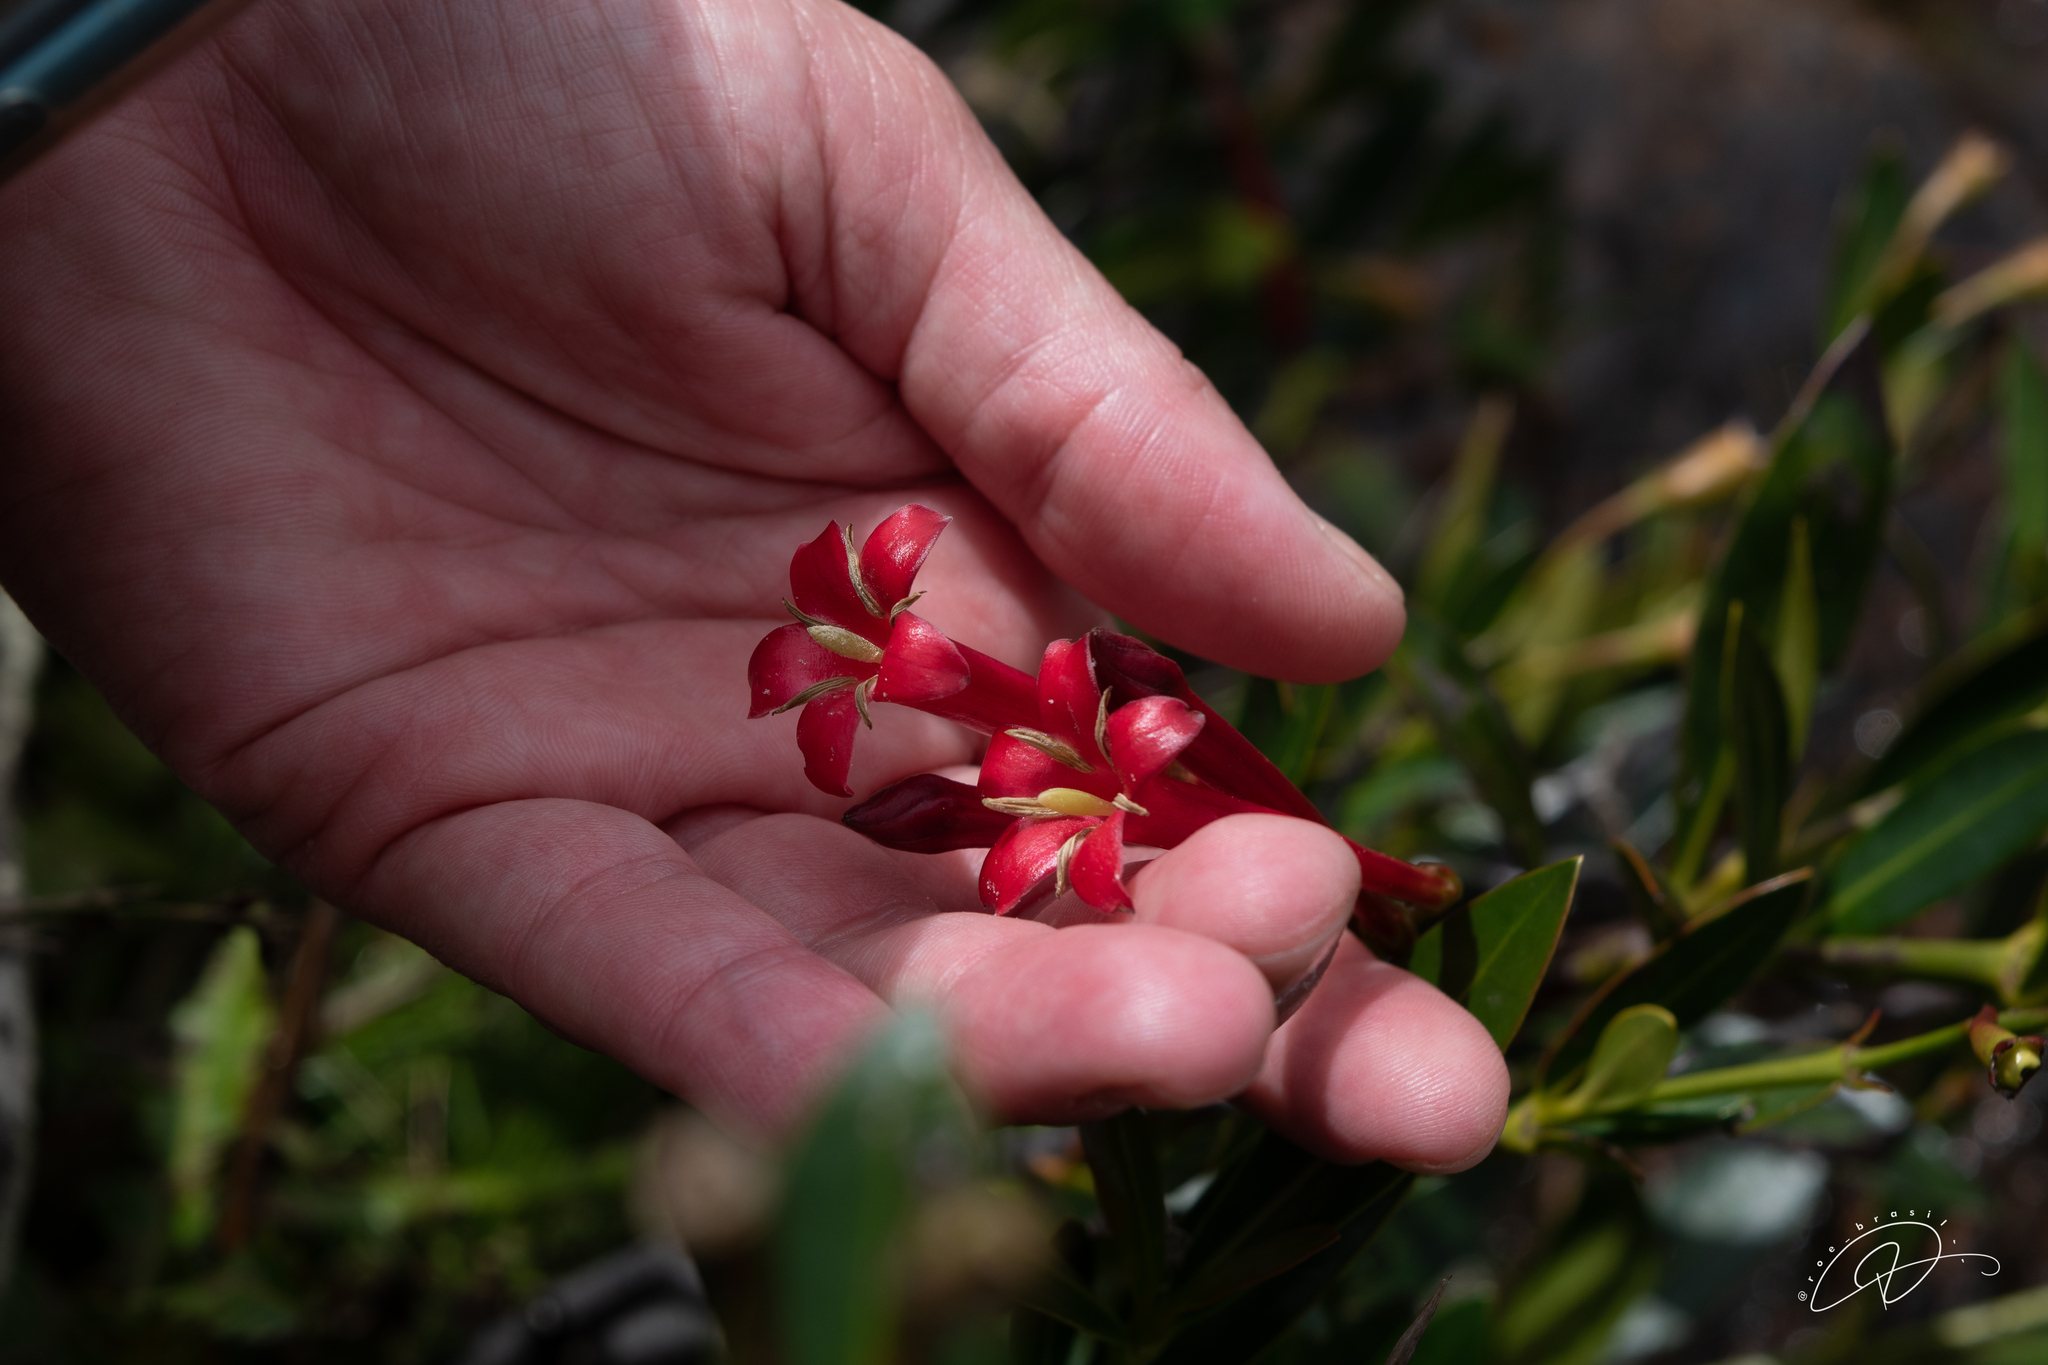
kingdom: Plantae
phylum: Tracheophyta
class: Magnoliopsida
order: Gentianales
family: Rubiaceae
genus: Augusta
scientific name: Augusta longifolia
